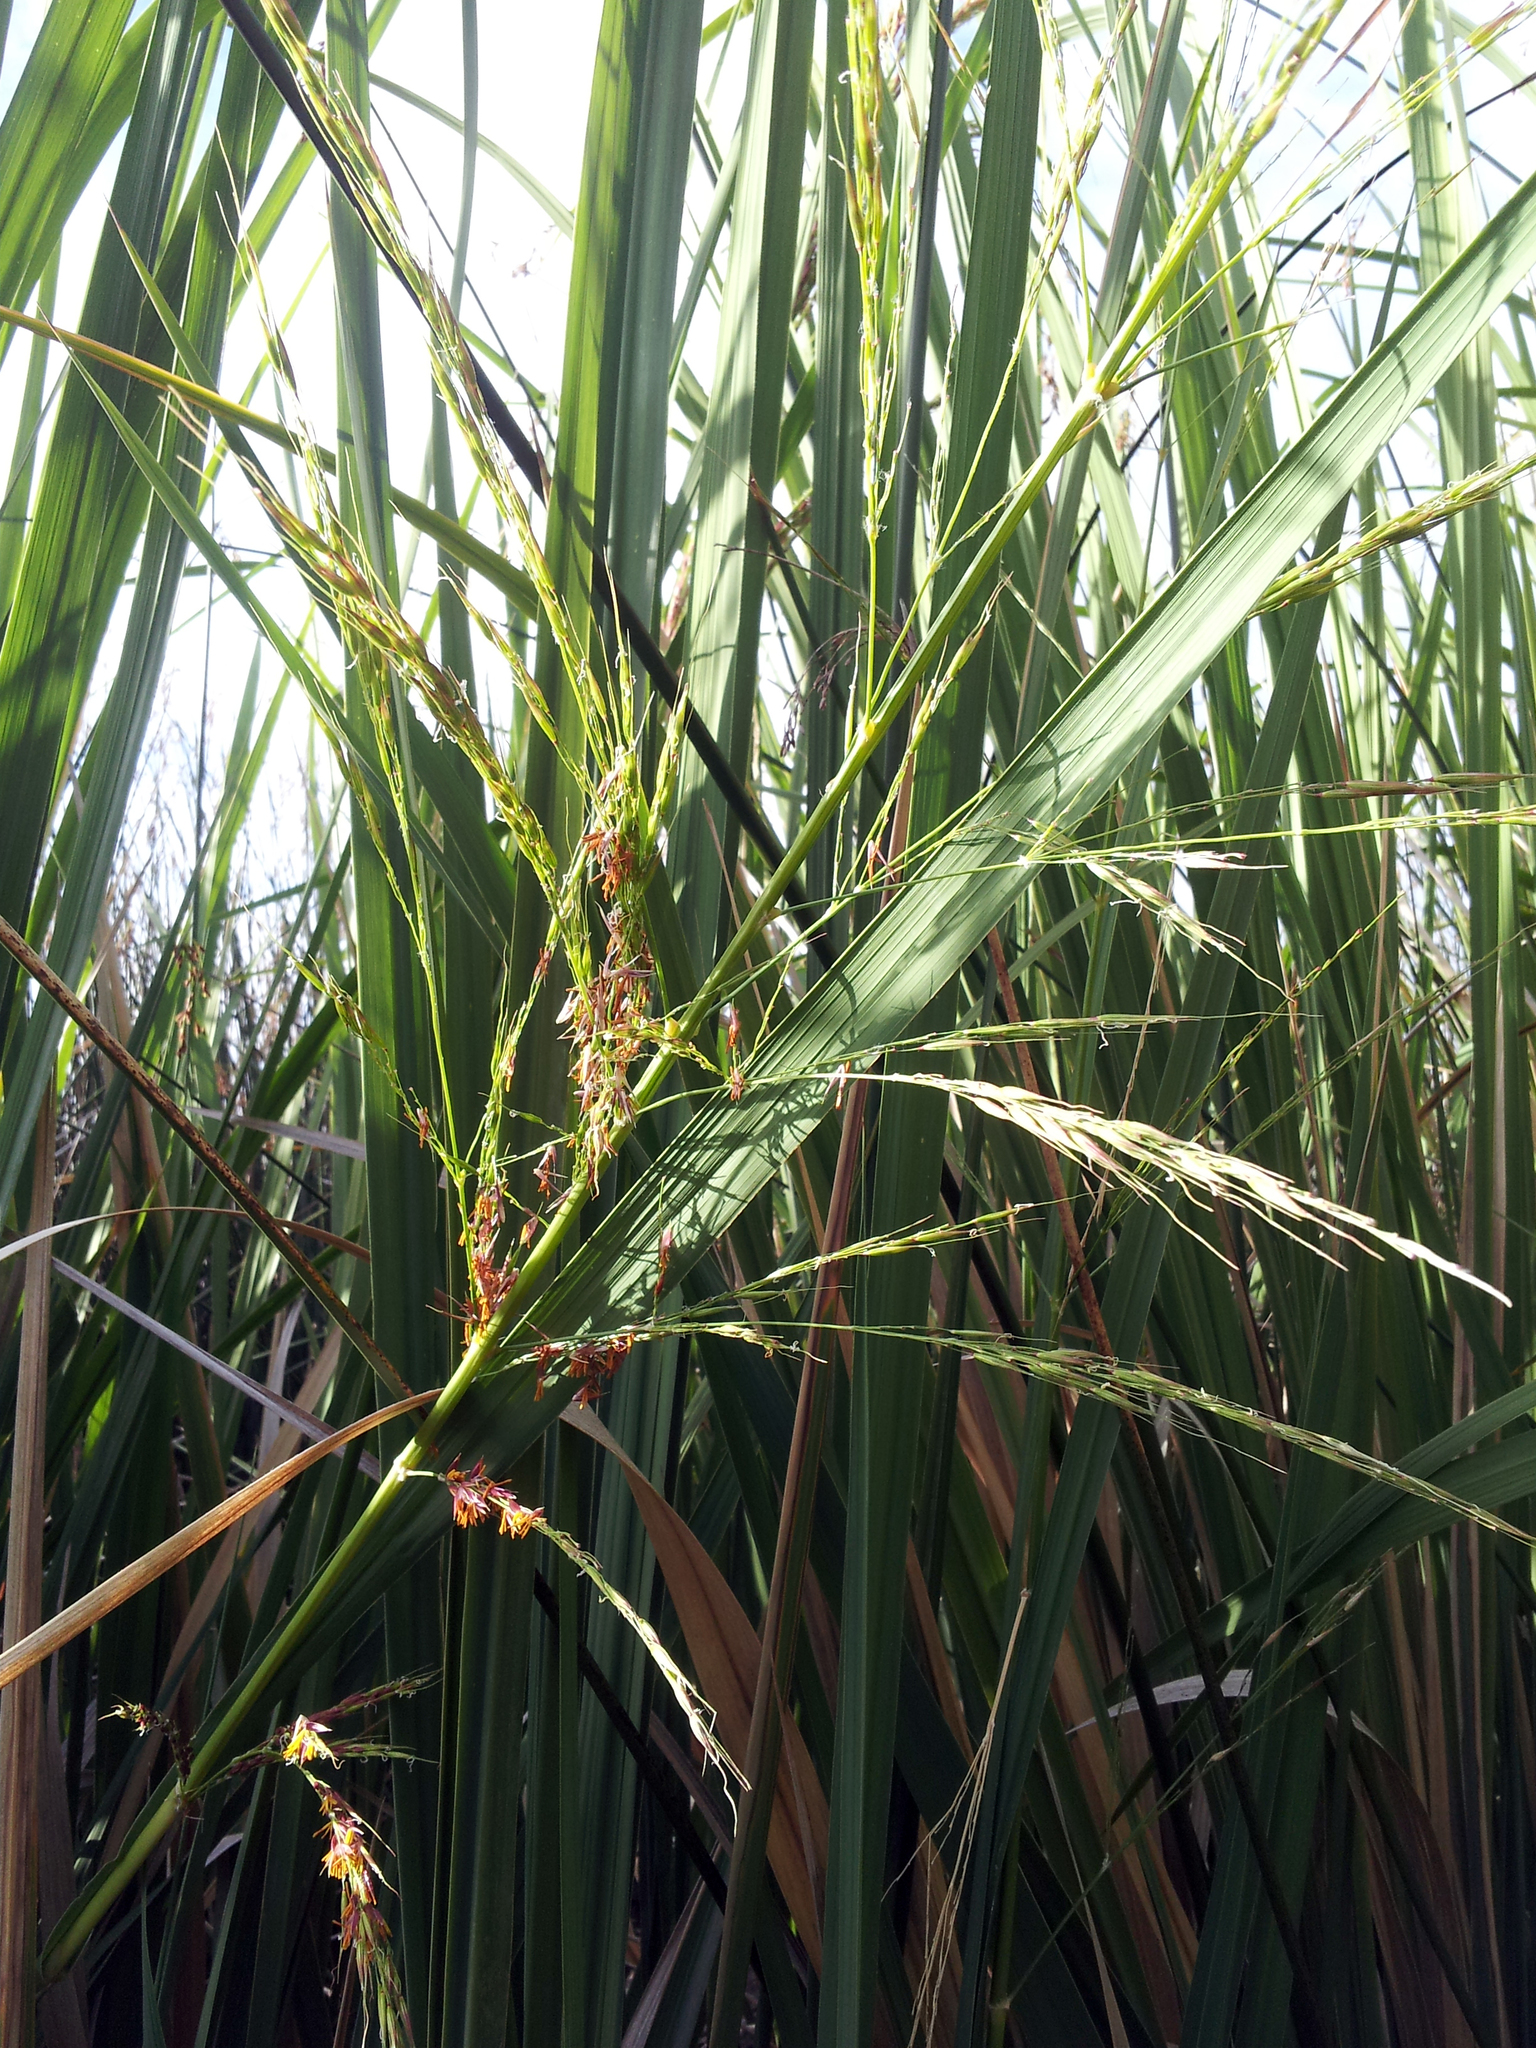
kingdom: Plantae
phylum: Tracheophyta
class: Liliopsida
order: Poales
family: Poaceae
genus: Zizania
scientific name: Zizania latifolia
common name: Manchurian wildrice
